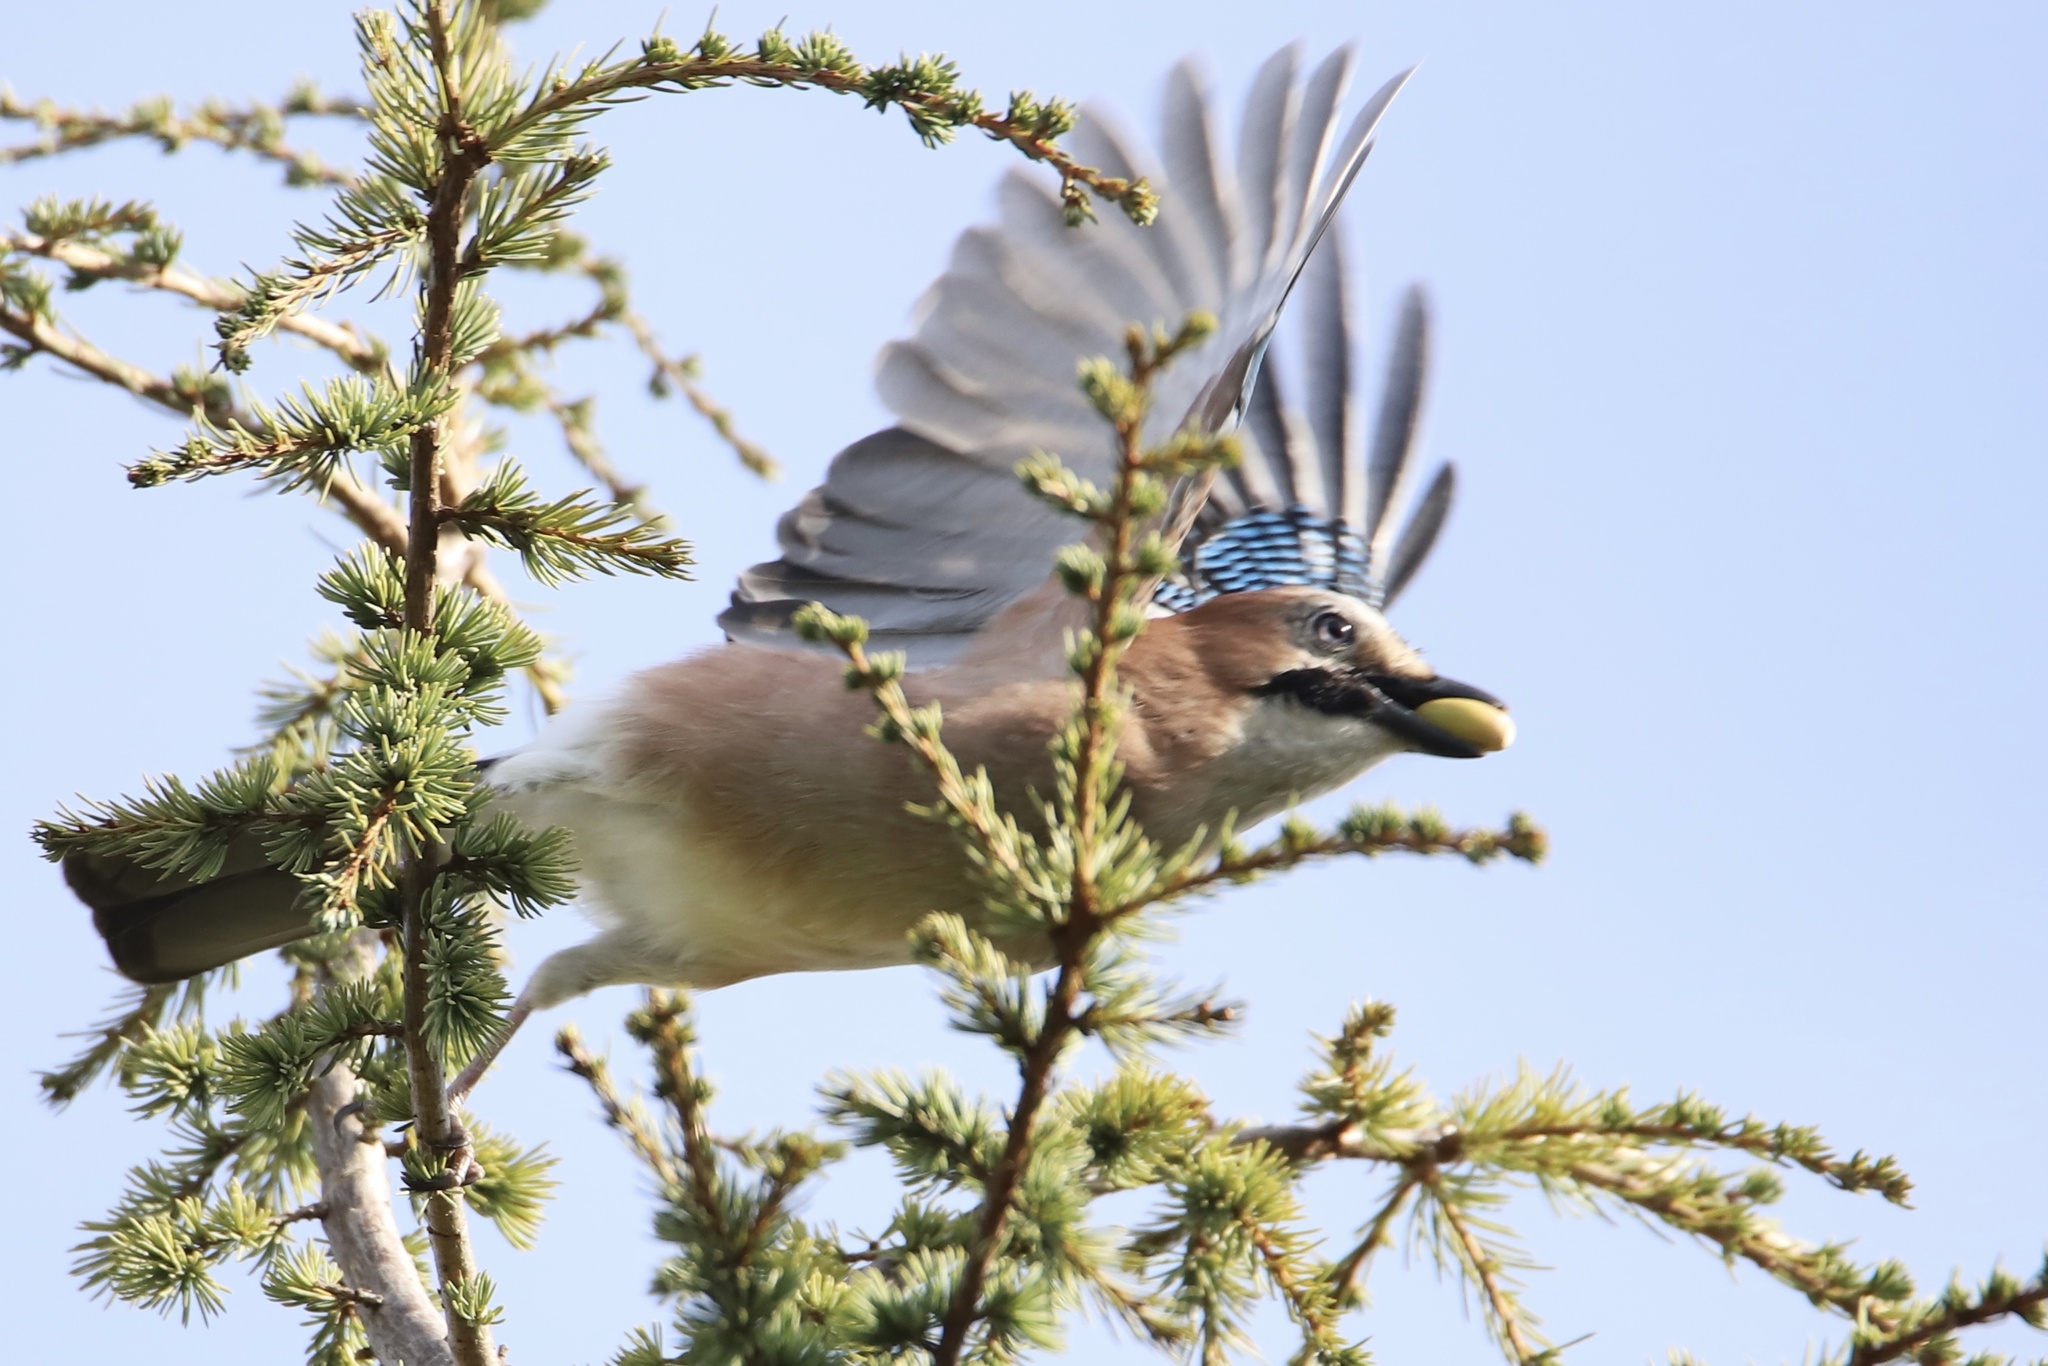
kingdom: Animalia
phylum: Chordata
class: Aves
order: Passeriformes
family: Corvidae
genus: Garrulus
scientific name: Garrulus glandarius
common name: Eurasian jay
